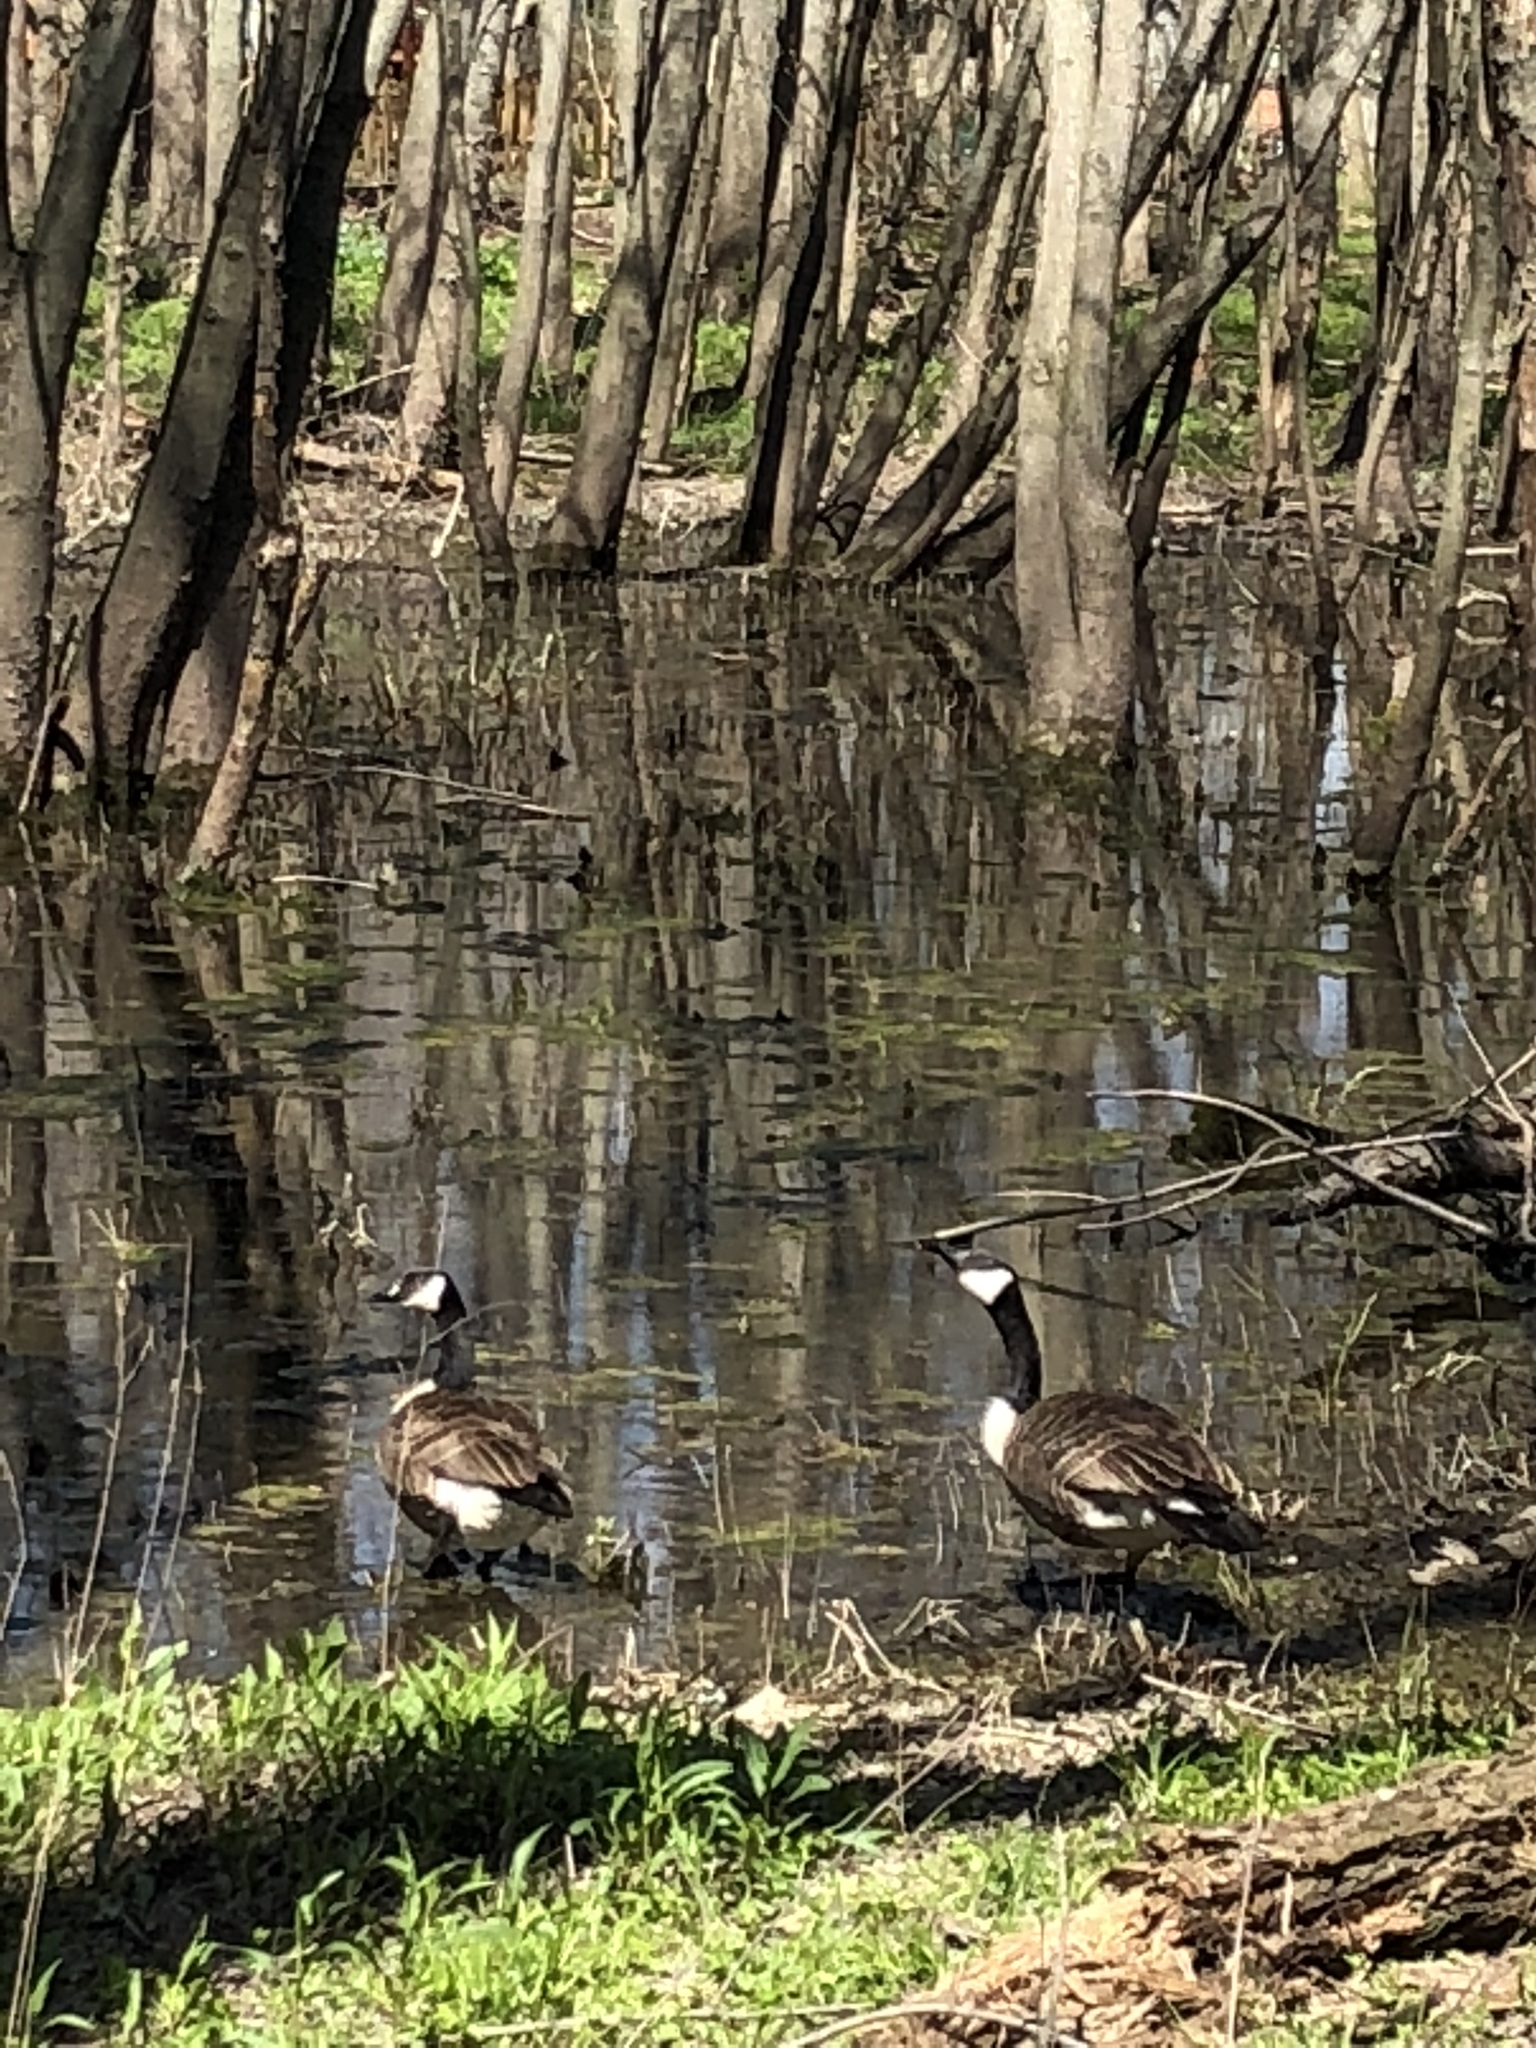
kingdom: Animalia
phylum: Chordata
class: Aves
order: Anseriformes
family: Anatidae
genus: Branta
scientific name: Branta canadensis
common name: Canada goose
